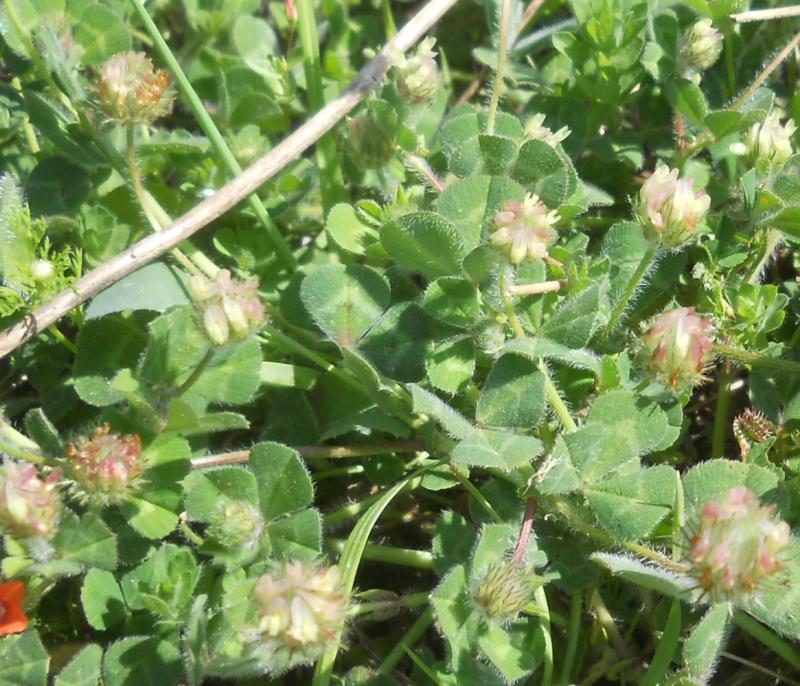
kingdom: Plantae
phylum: Tracheophyta
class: Magnoliopsida
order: Fabales
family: Fabaceae
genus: Trifolium
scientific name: Trifolium fragiferum
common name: Strawberry clover
